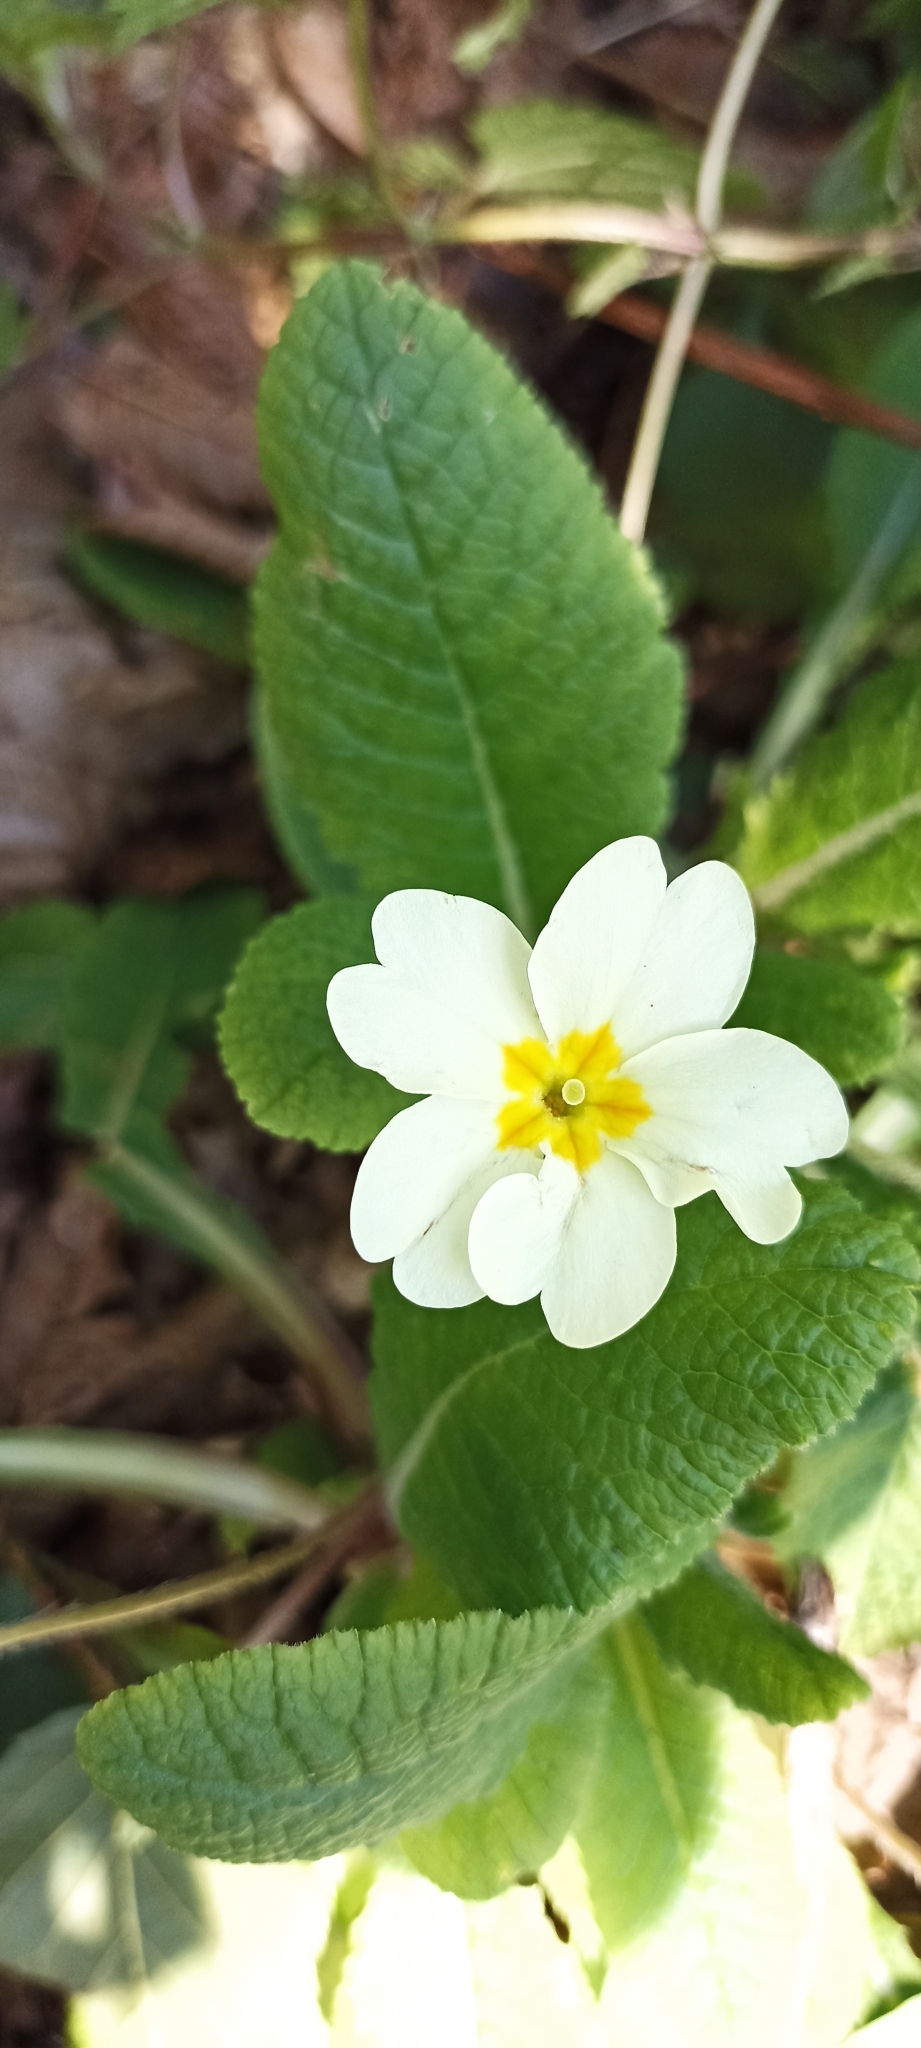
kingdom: Plantae
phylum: Tracheophyta
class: Magnoliopsida
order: Ericales
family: Primulaceae
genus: Primula
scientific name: Primula vulgaris
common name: Primrose
